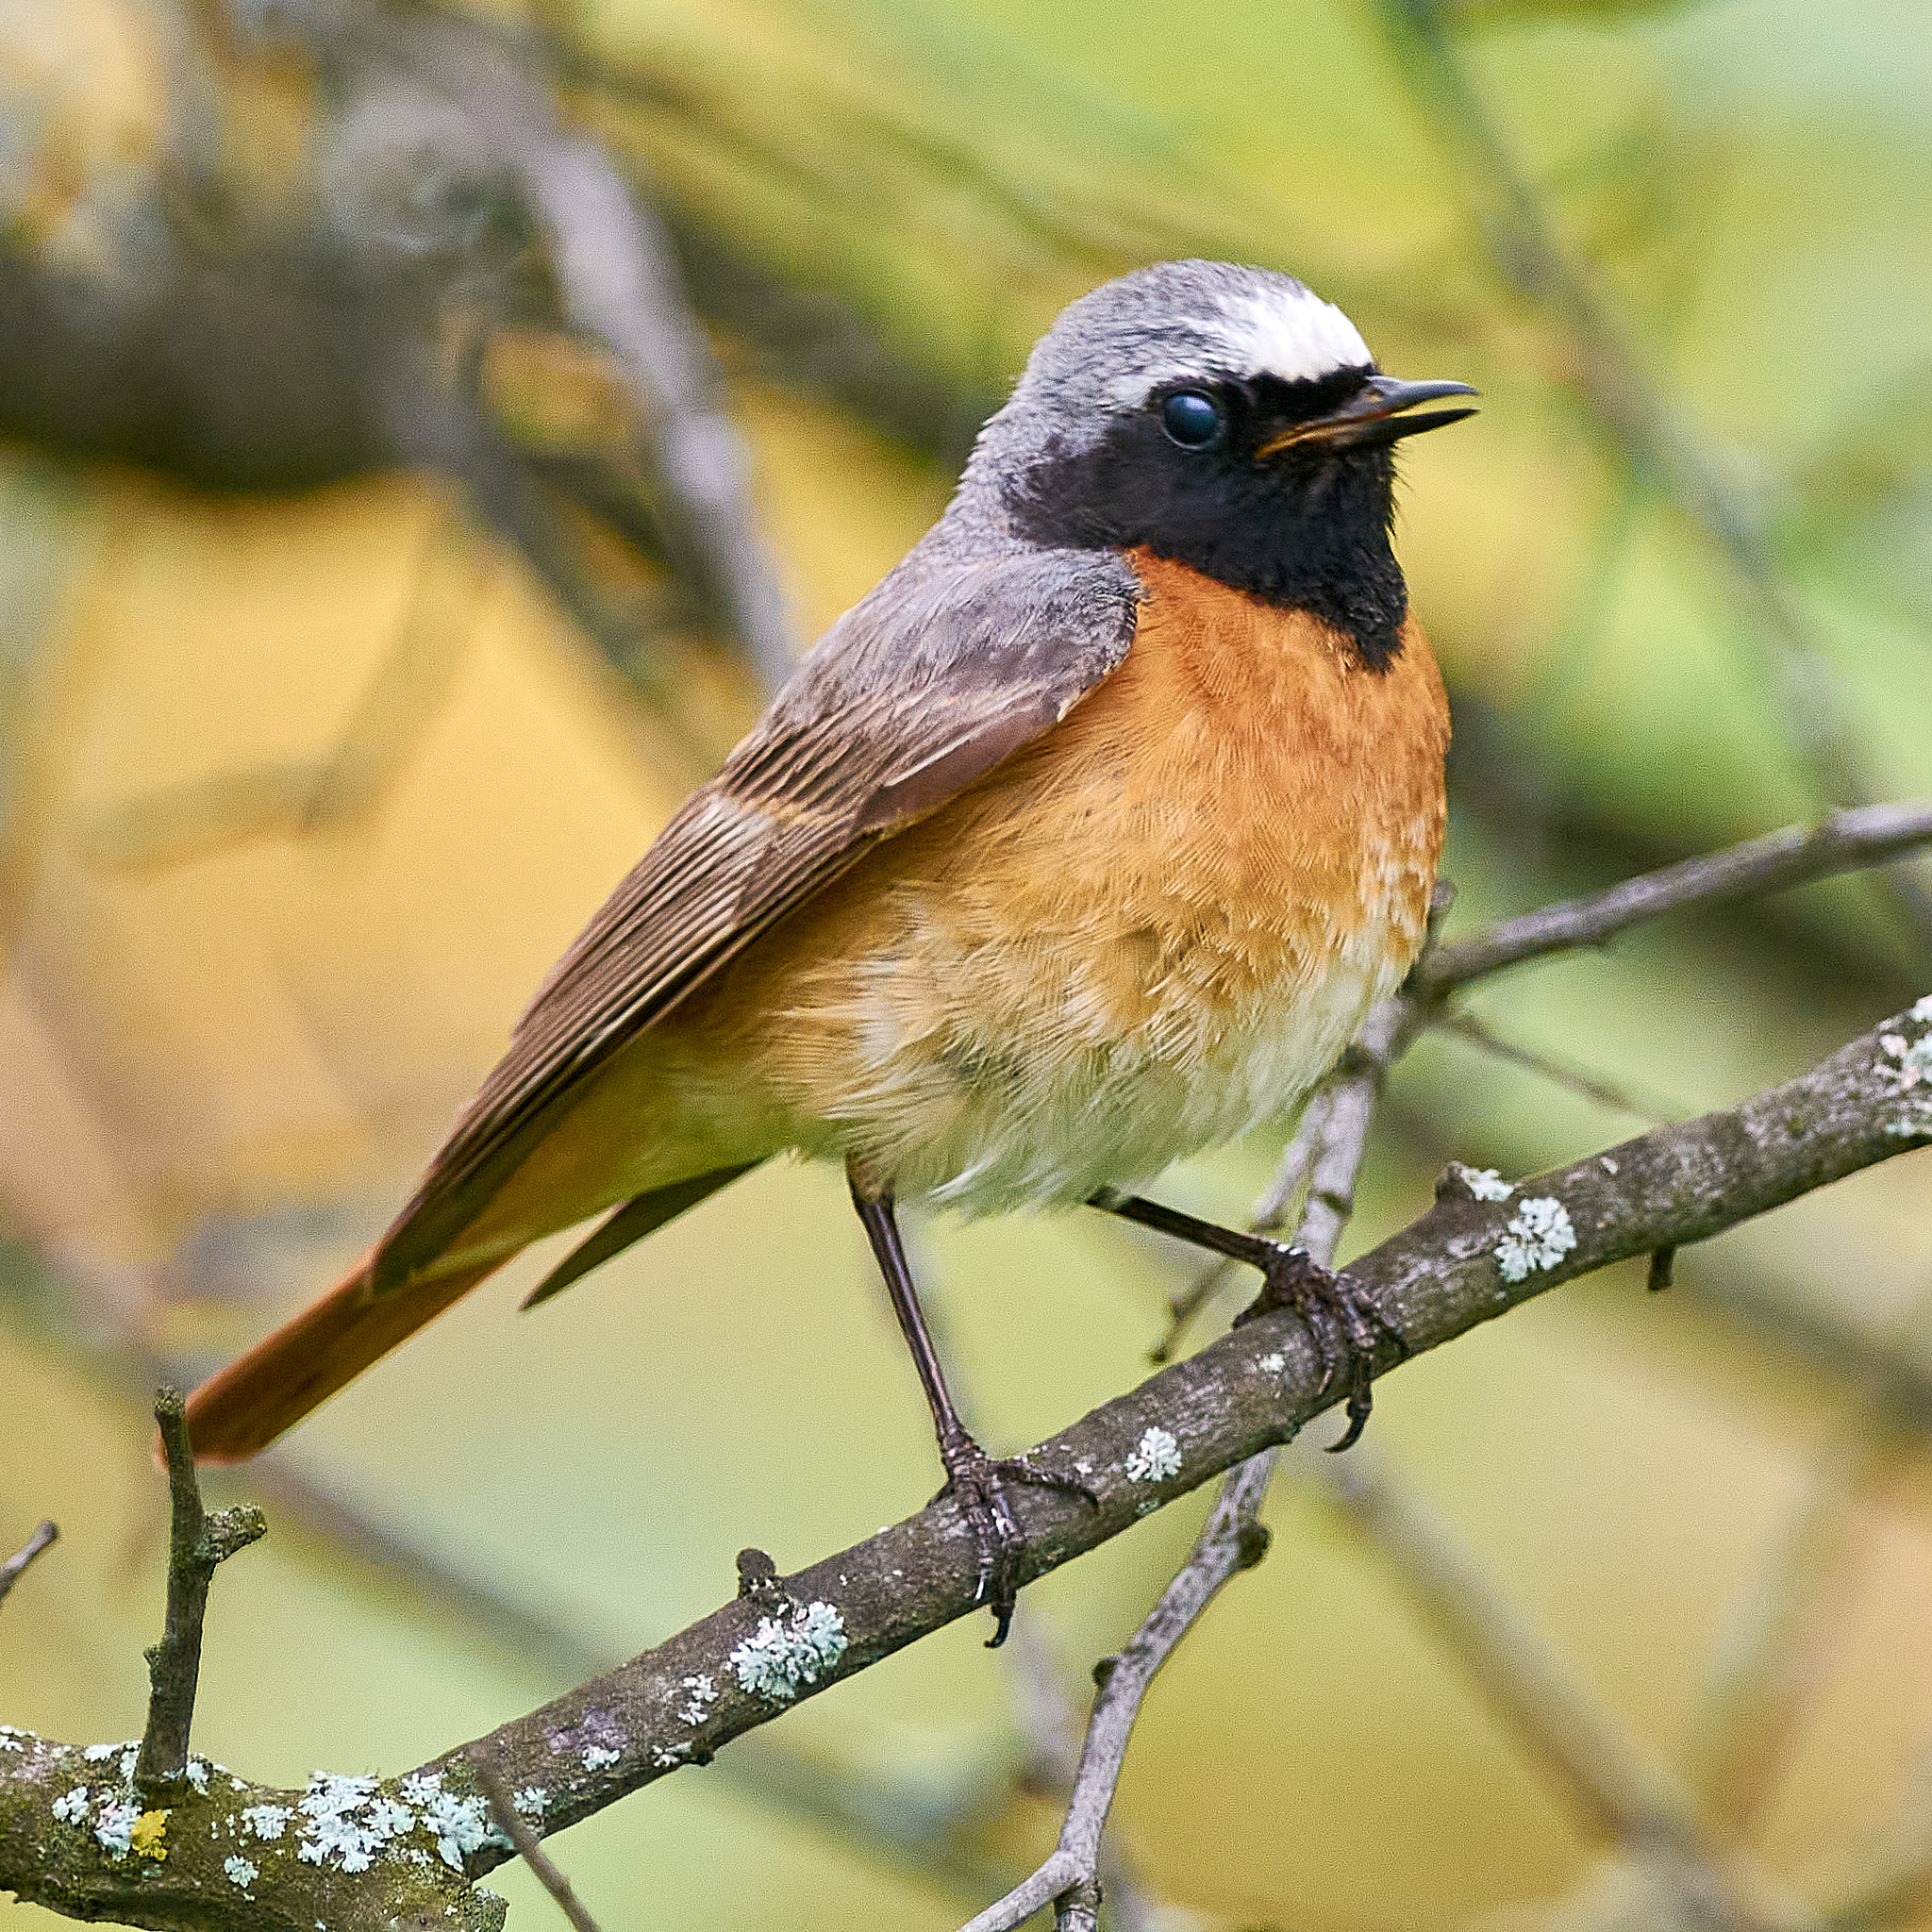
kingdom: Animalia
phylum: Chordata
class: Aves
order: Passeriformes
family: Muscicapidae
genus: Phoenicurus
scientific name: Phoenicurus phoenicurus
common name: Common redstart
